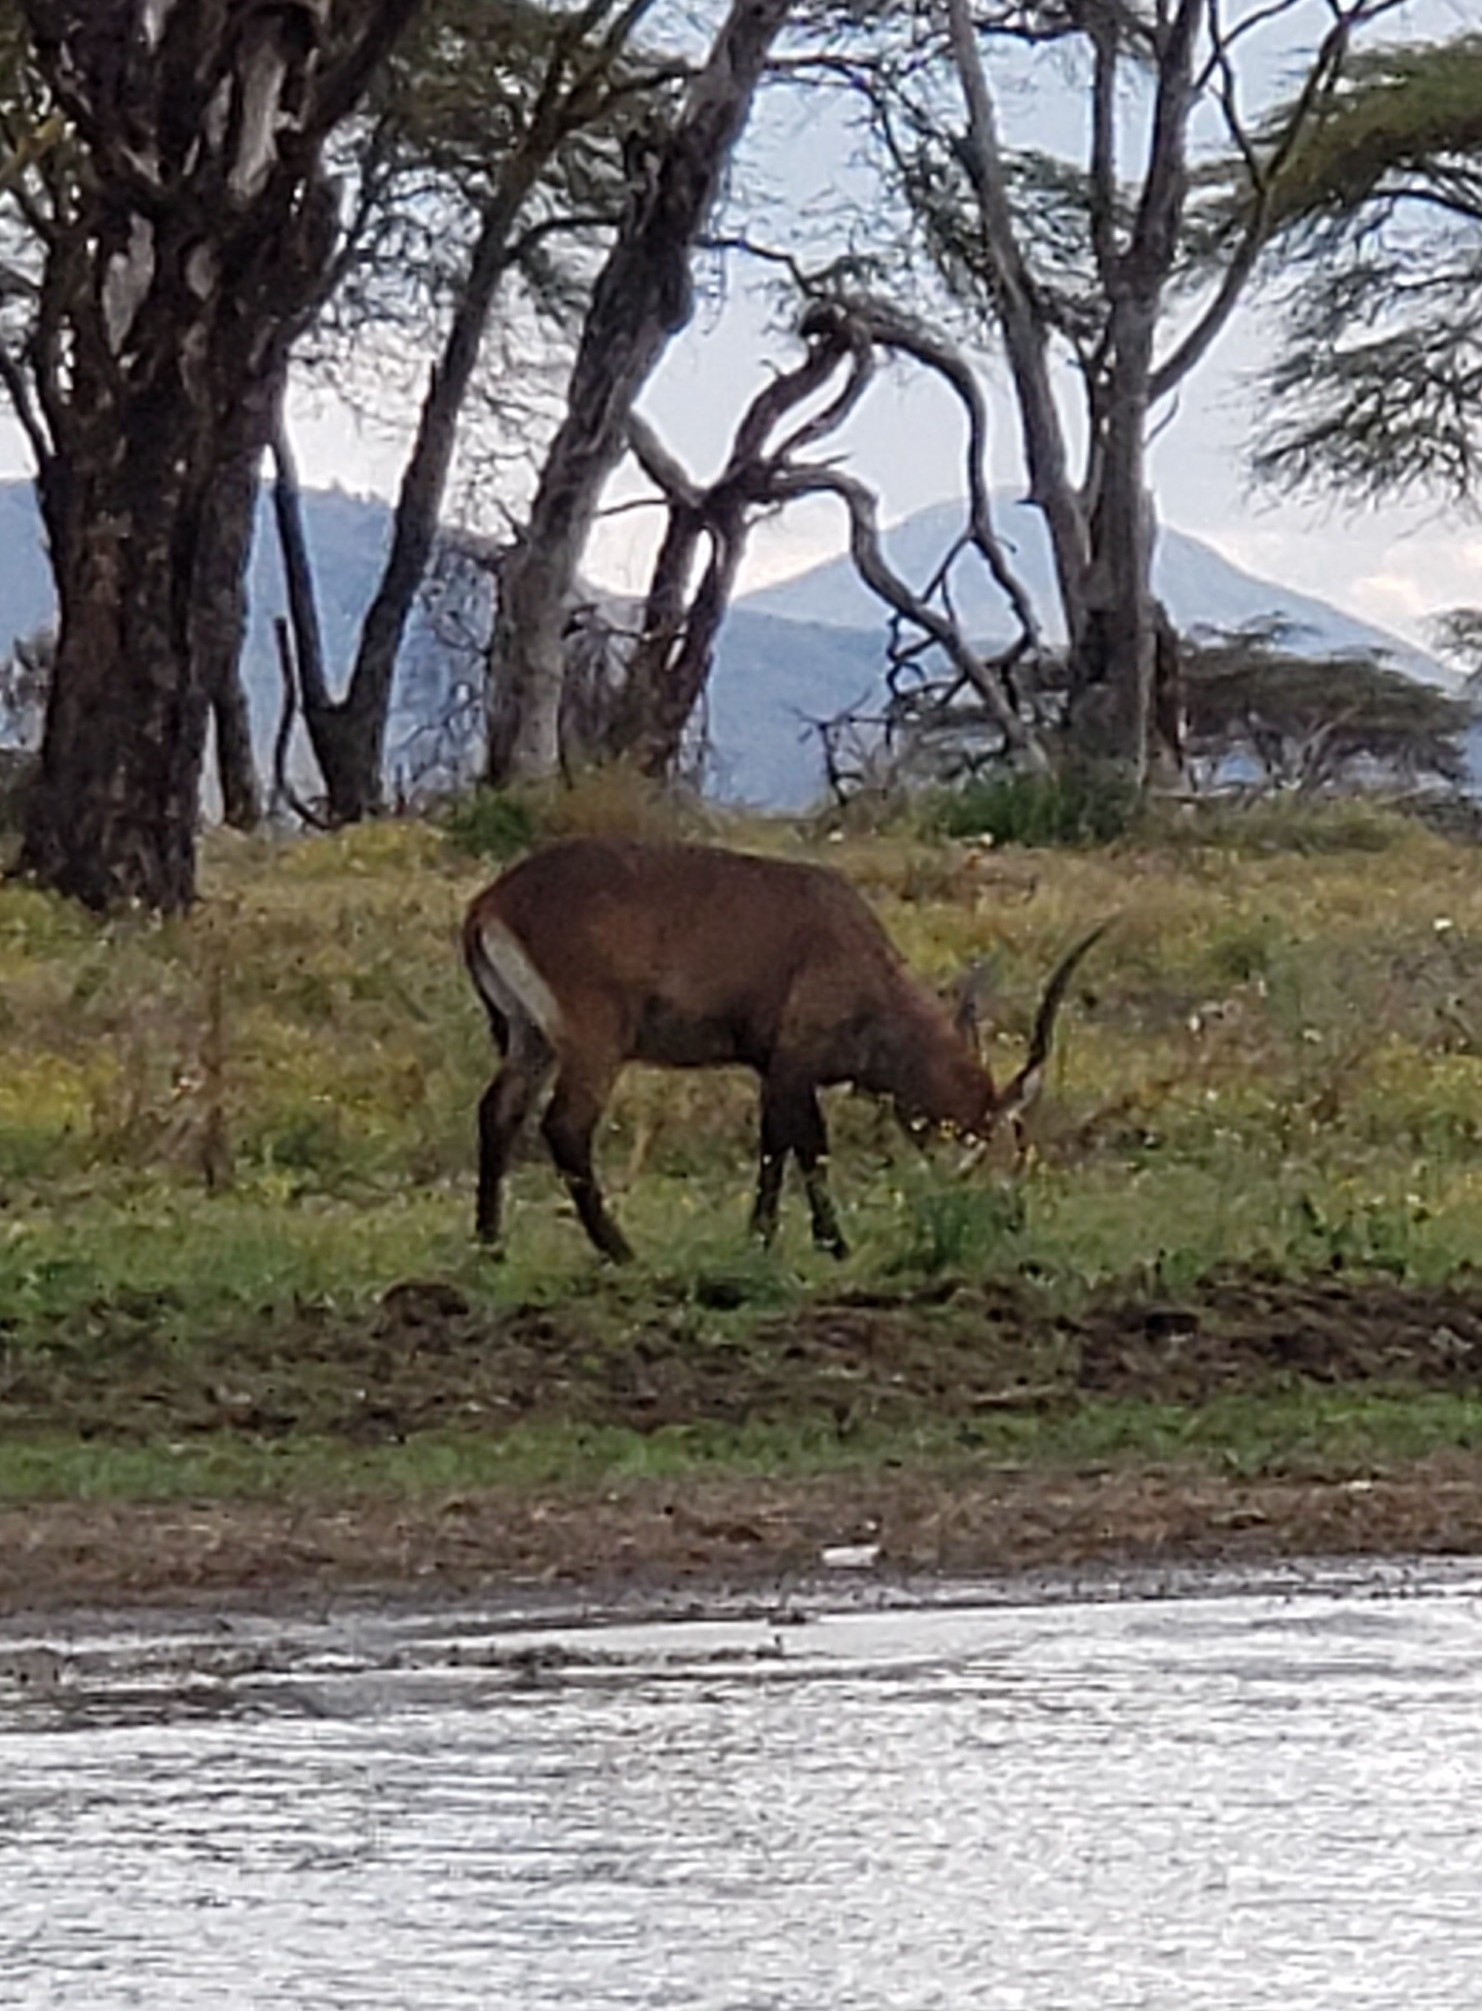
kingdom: Animalia
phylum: Chordata
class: Mammalia
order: Artiodactyla
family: Bovidae
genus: Kobus
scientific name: Kobus ellipsiprymnus
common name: Waterbuck
